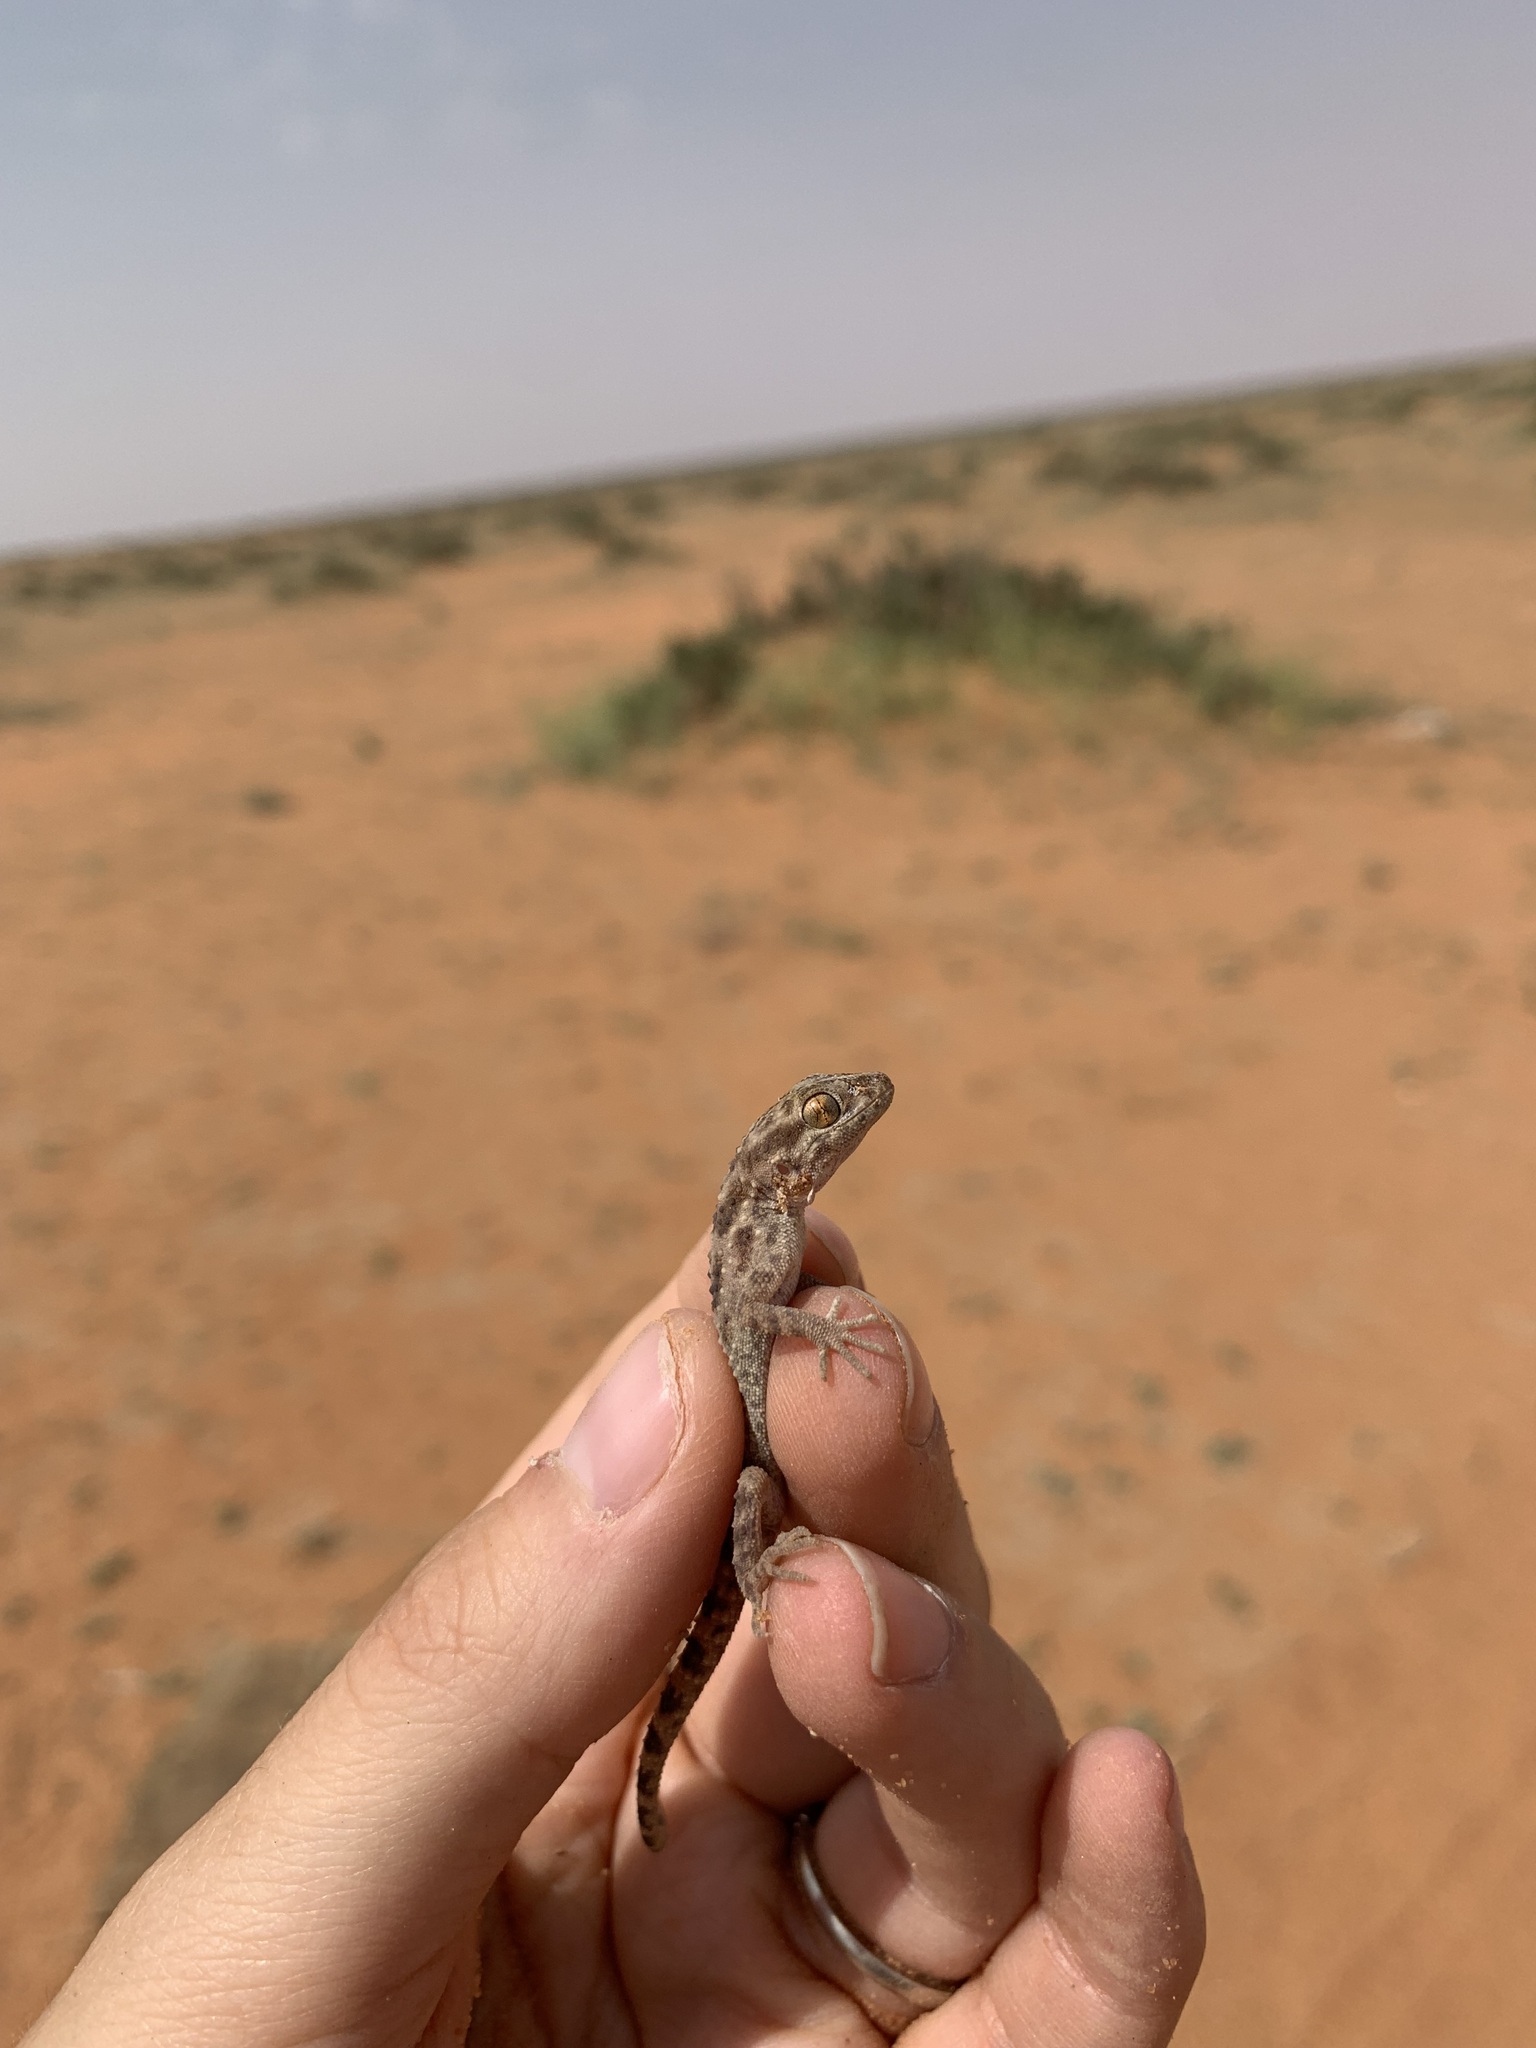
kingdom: Animalia
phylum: Chordata
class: Squamata
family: Gekkonidae
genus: Bunopus
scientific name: Bunopus tuberculatus
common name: Southern tuberculated gecko
